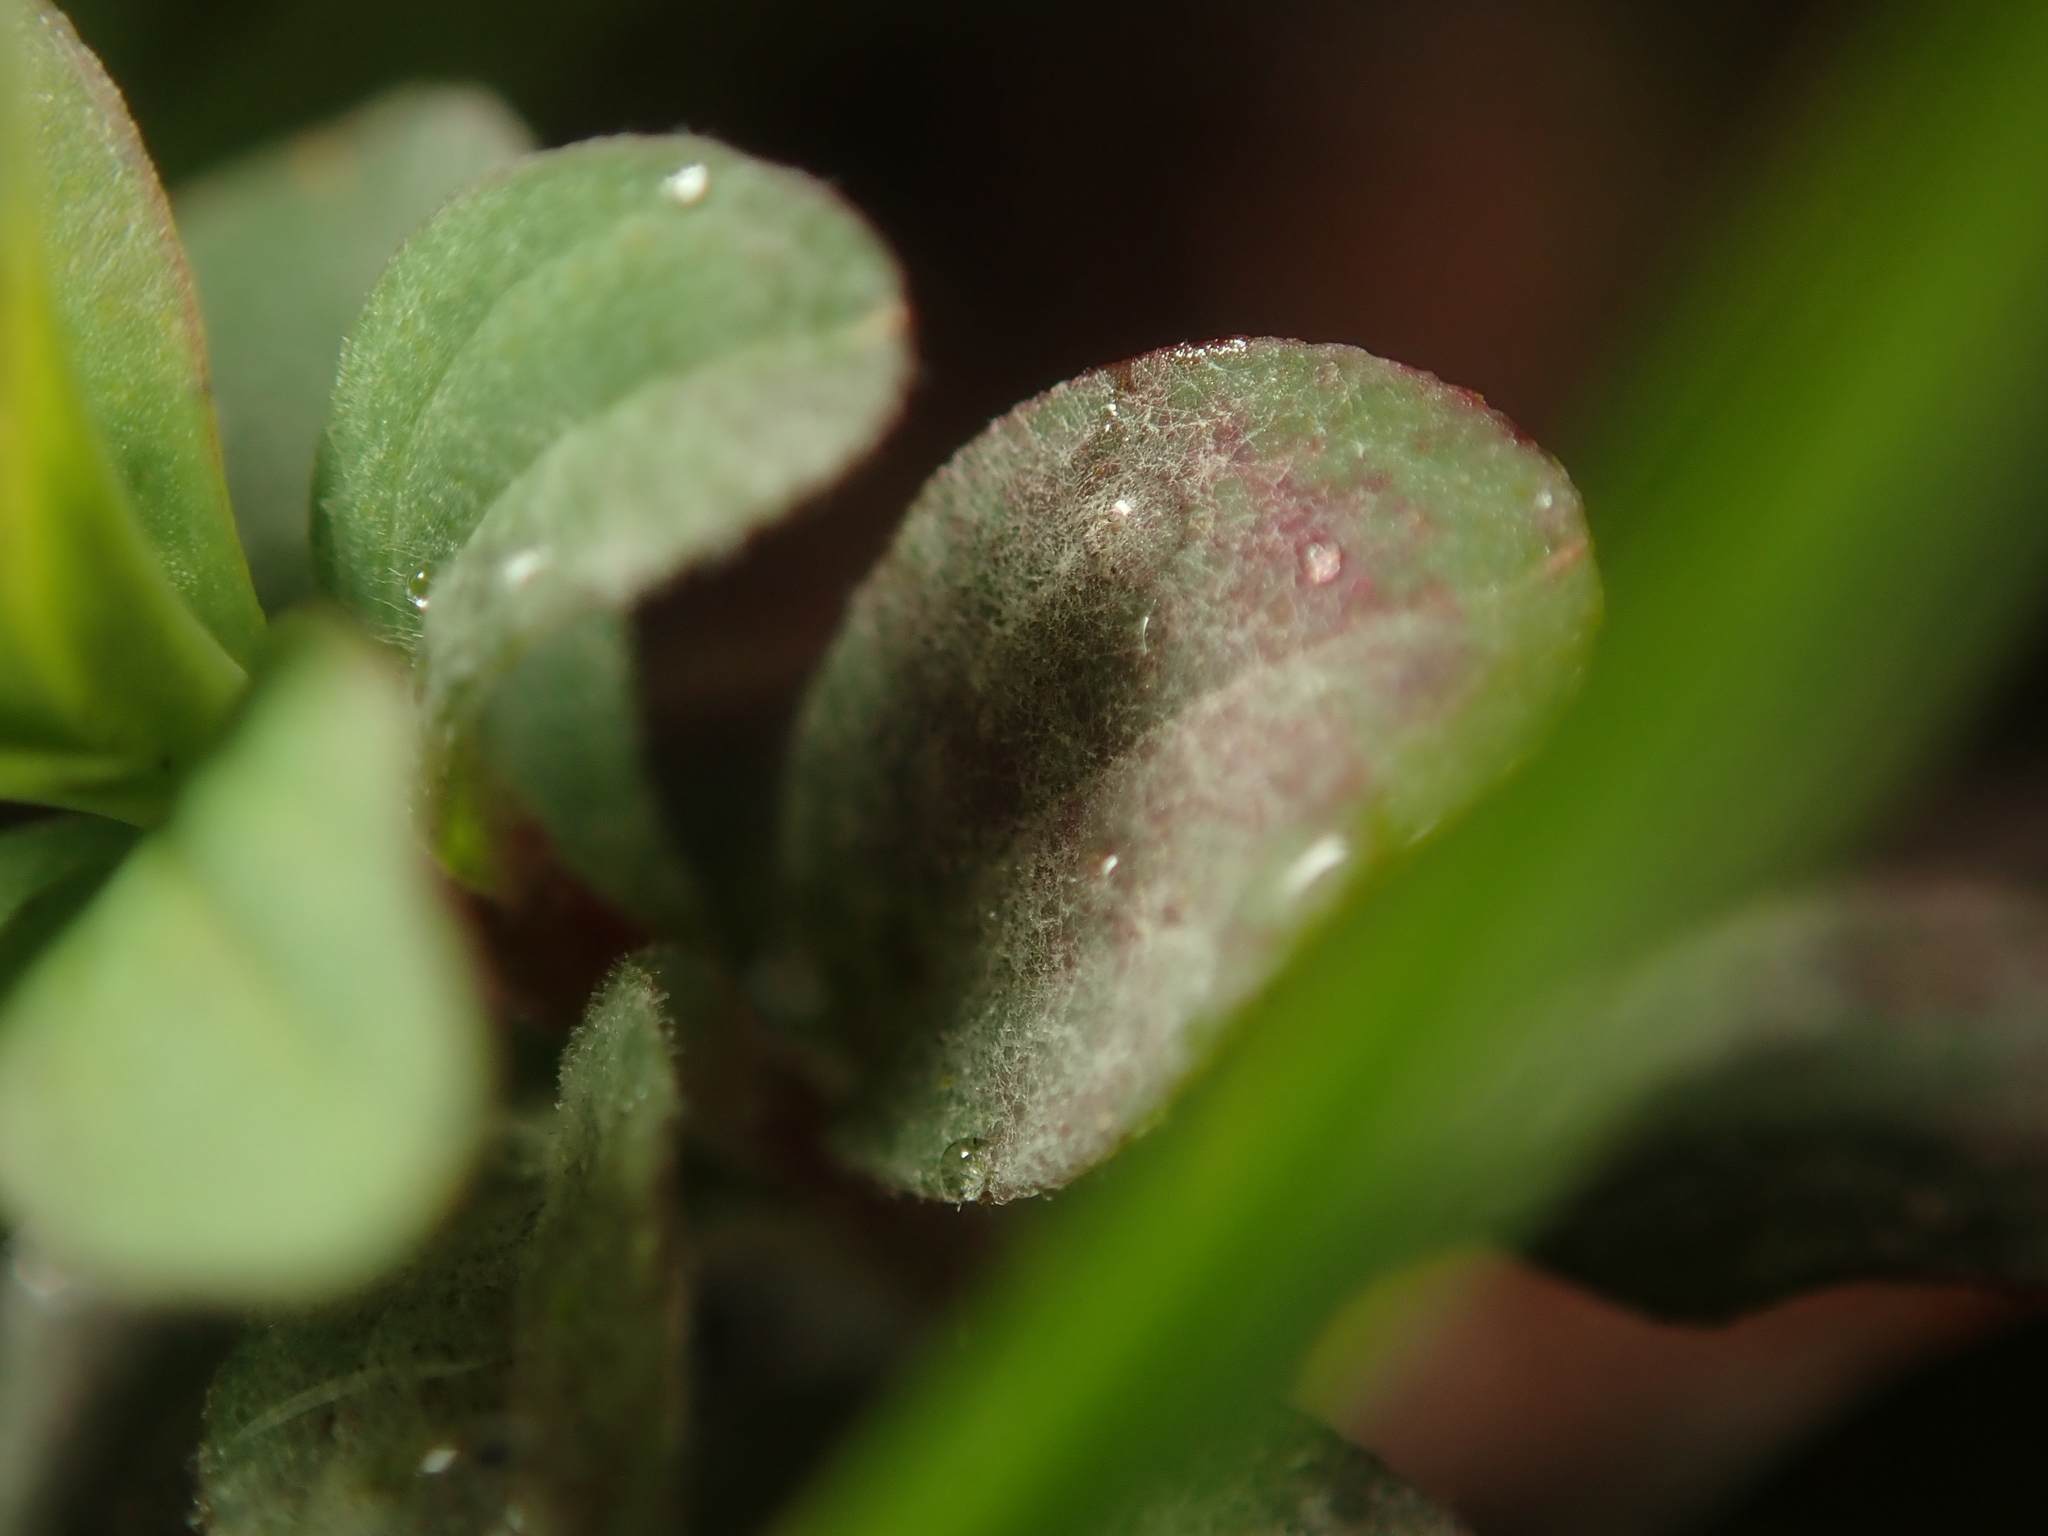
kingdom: Fungi
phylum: Ascomycota
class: Leotiomycetes
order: Helotiales
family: Erysiphaceae
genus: Erysiphe
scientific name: Erysiphe hyperici
